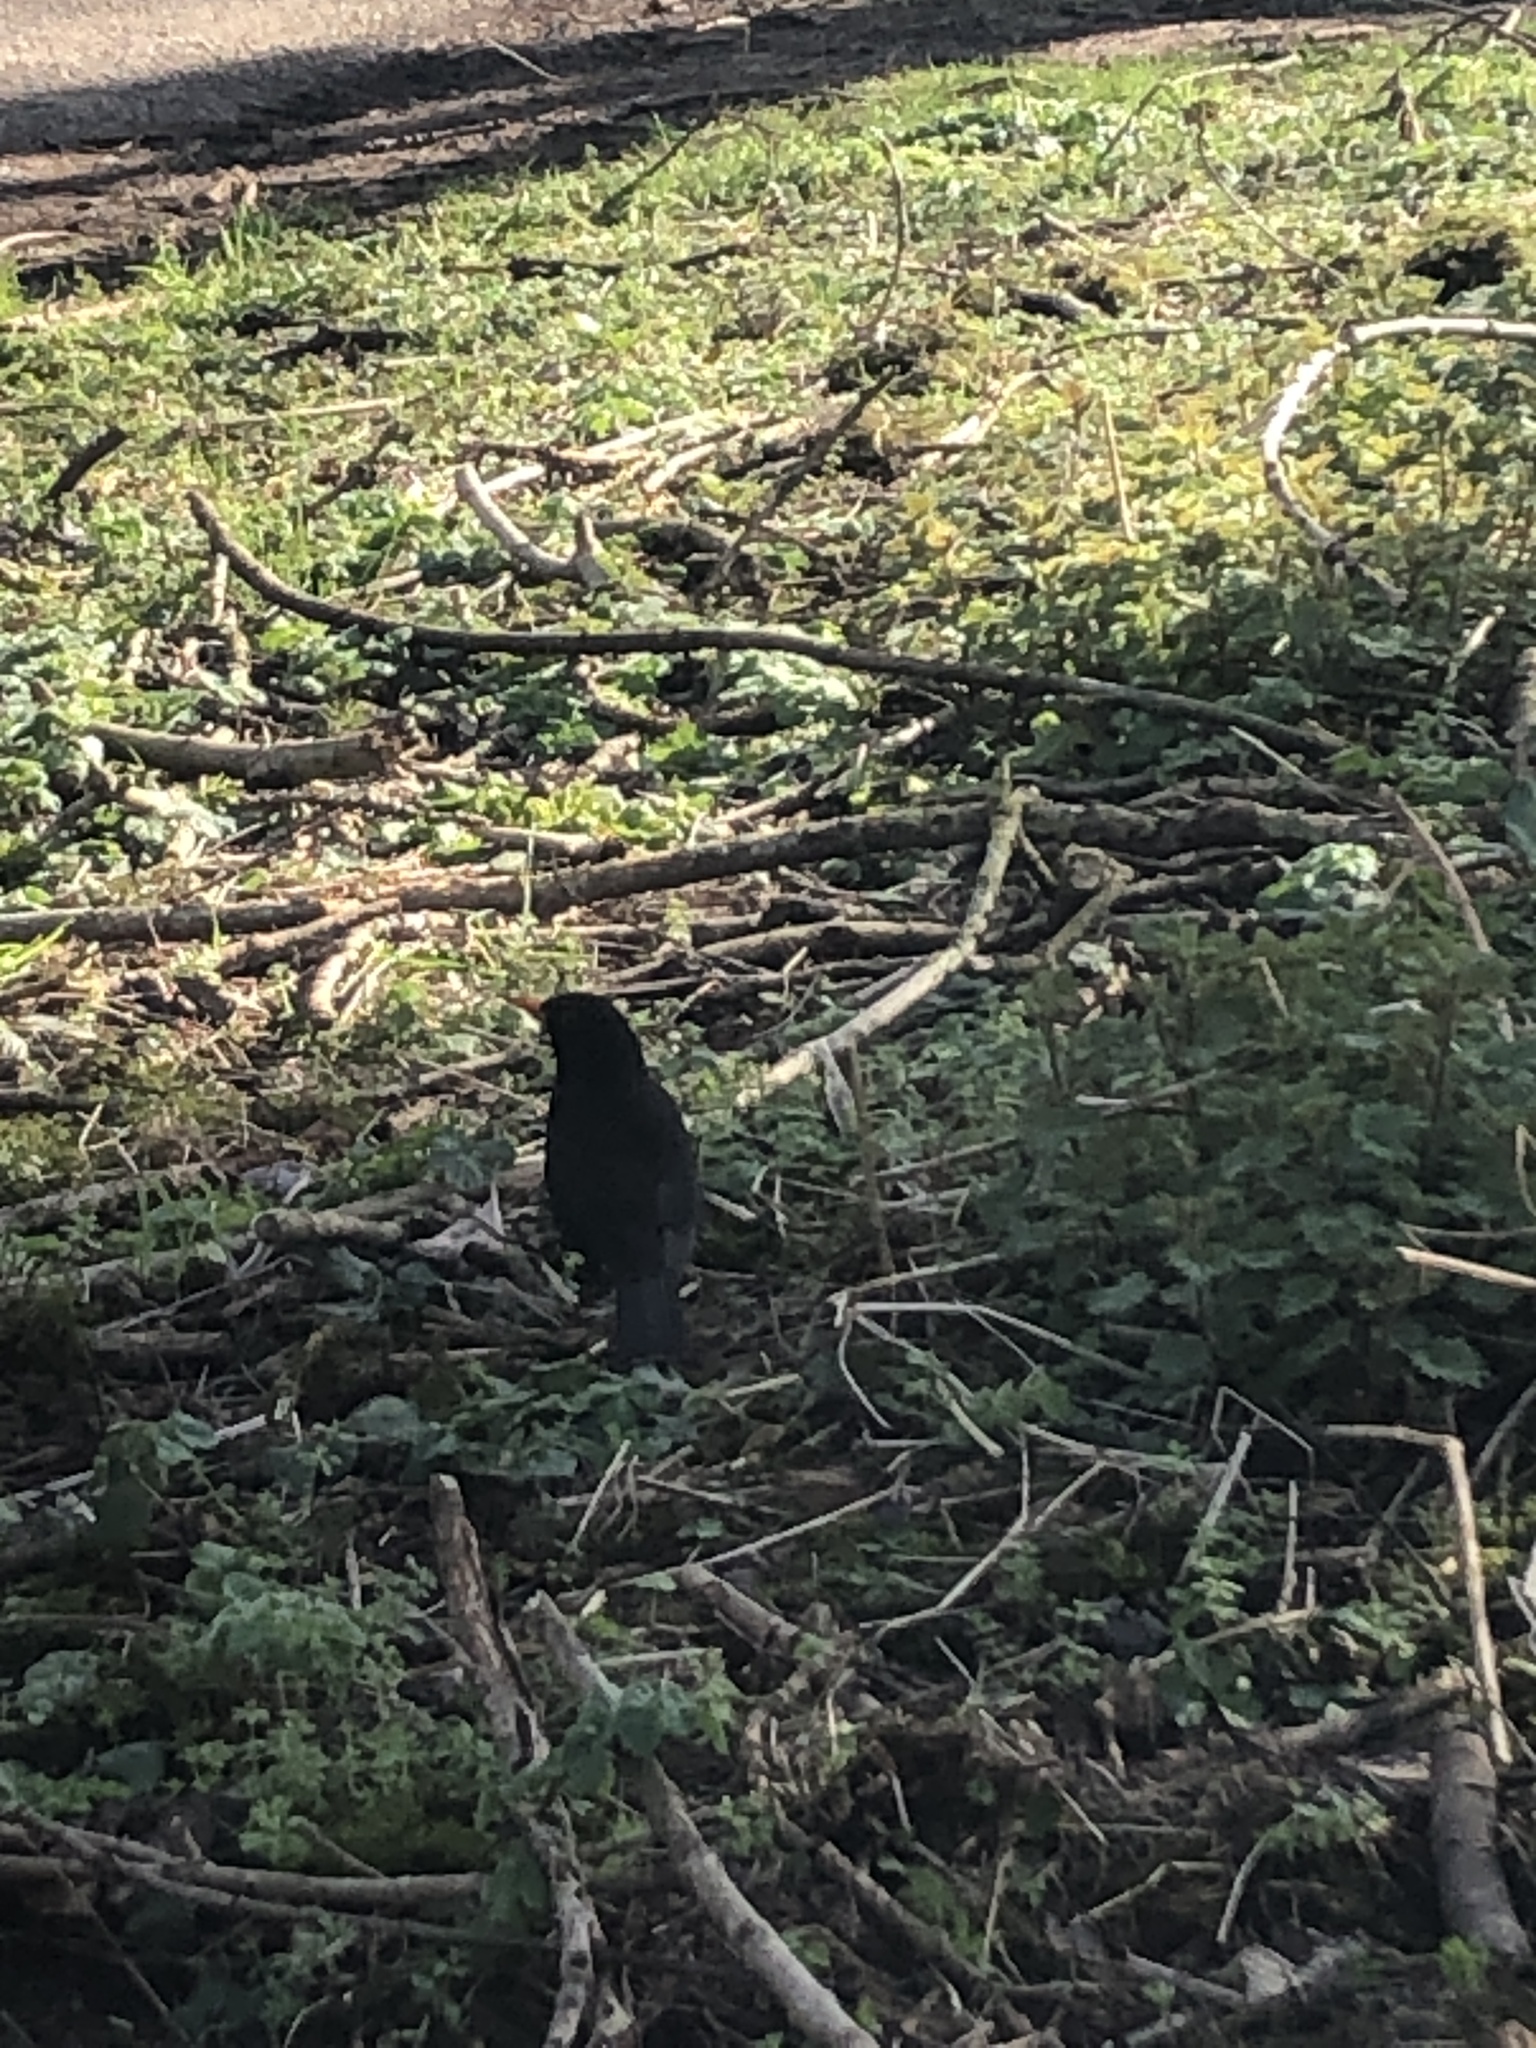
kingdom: Animalia
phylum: Chordata
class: Aves
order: Passeriformes
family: Turdidae
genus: Turdus
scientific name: Turdus merula
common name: Common blackbird
